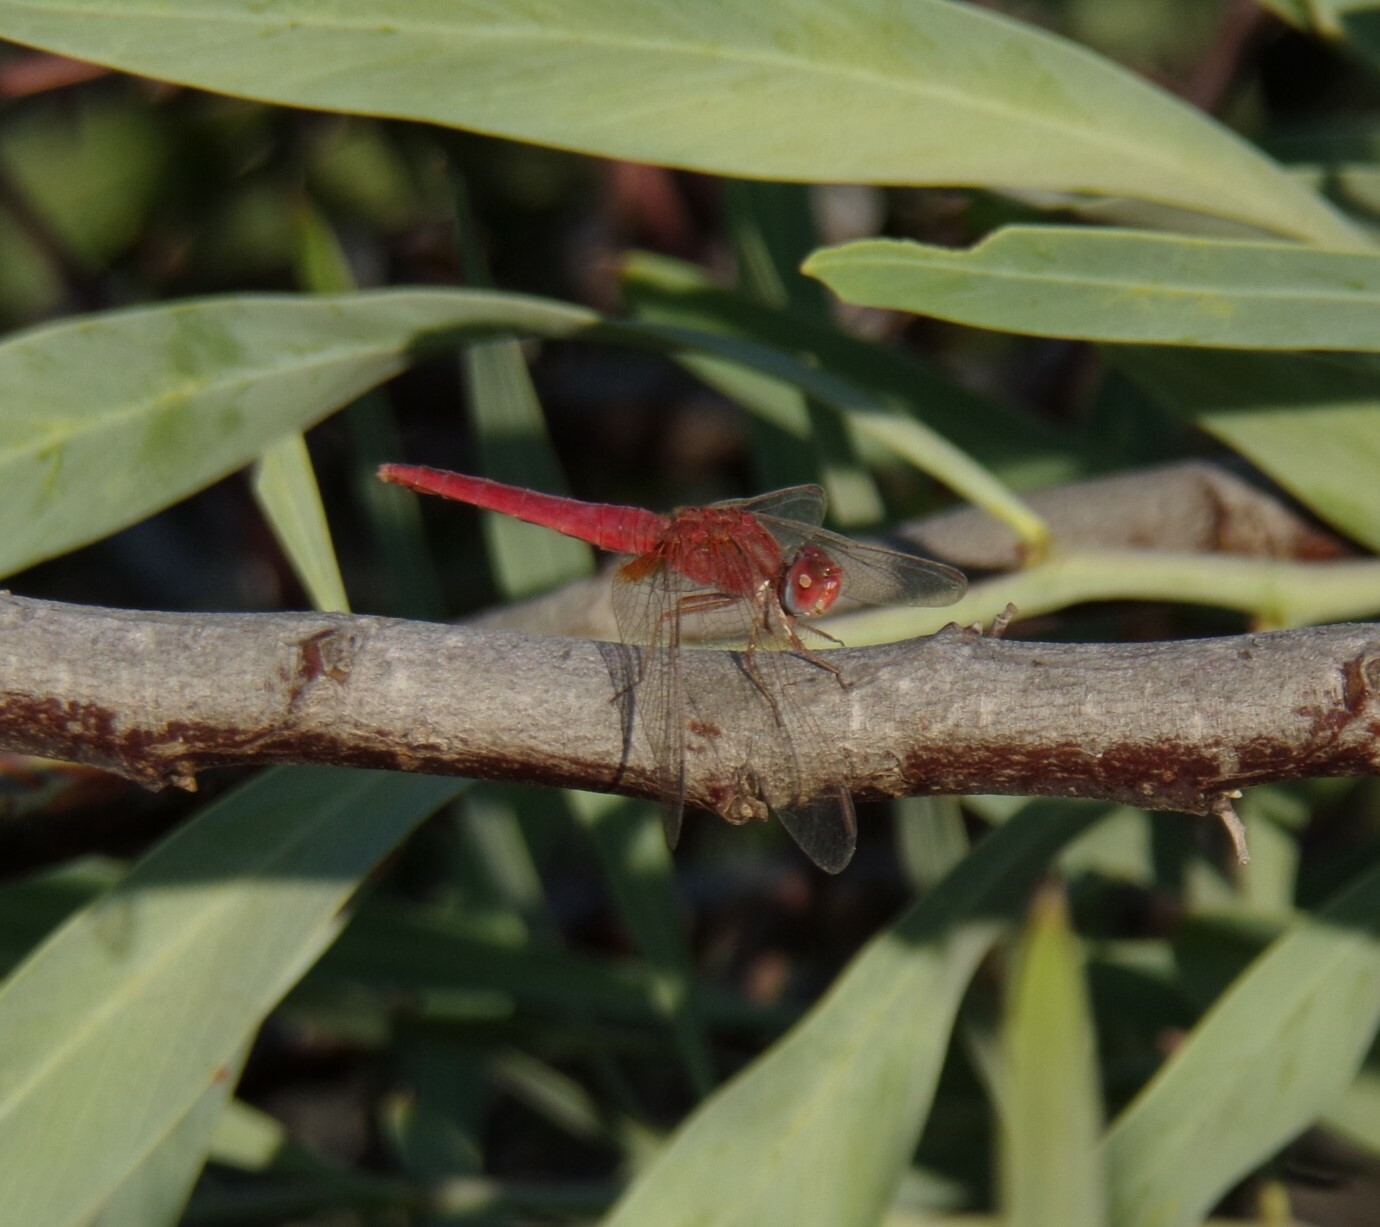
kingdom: Animalia
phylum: Arthropoda
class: Insecta
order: Odonata
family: Libellulidae
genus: Crocothemis
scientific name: Crocothemis erythraea
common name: Scarlet dragonfly
